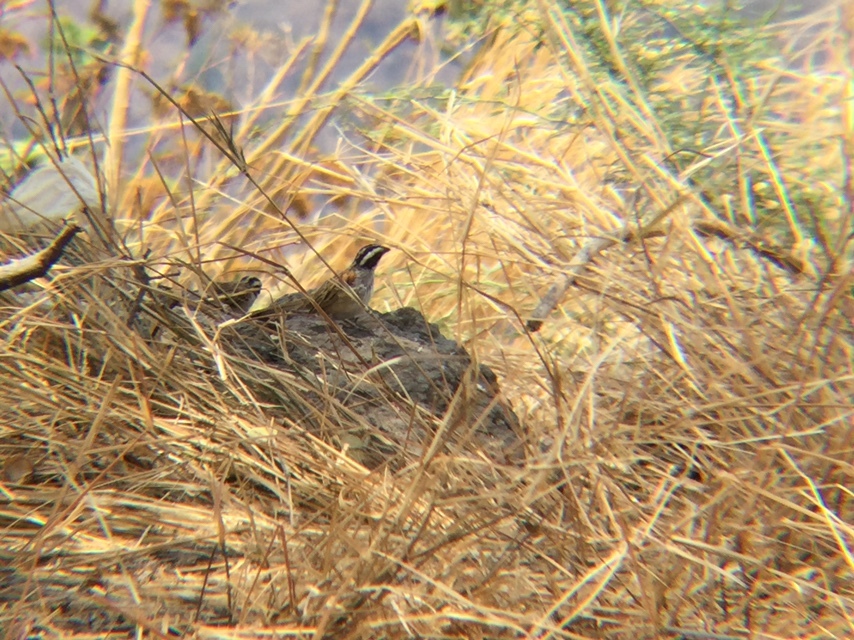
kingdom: Animalia
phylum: Chordata
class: Aves
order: Passeriformes
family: Passerellidae
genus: Peucaea
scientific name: Peucaea ruficauda
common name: Stripe-headed sparrow
